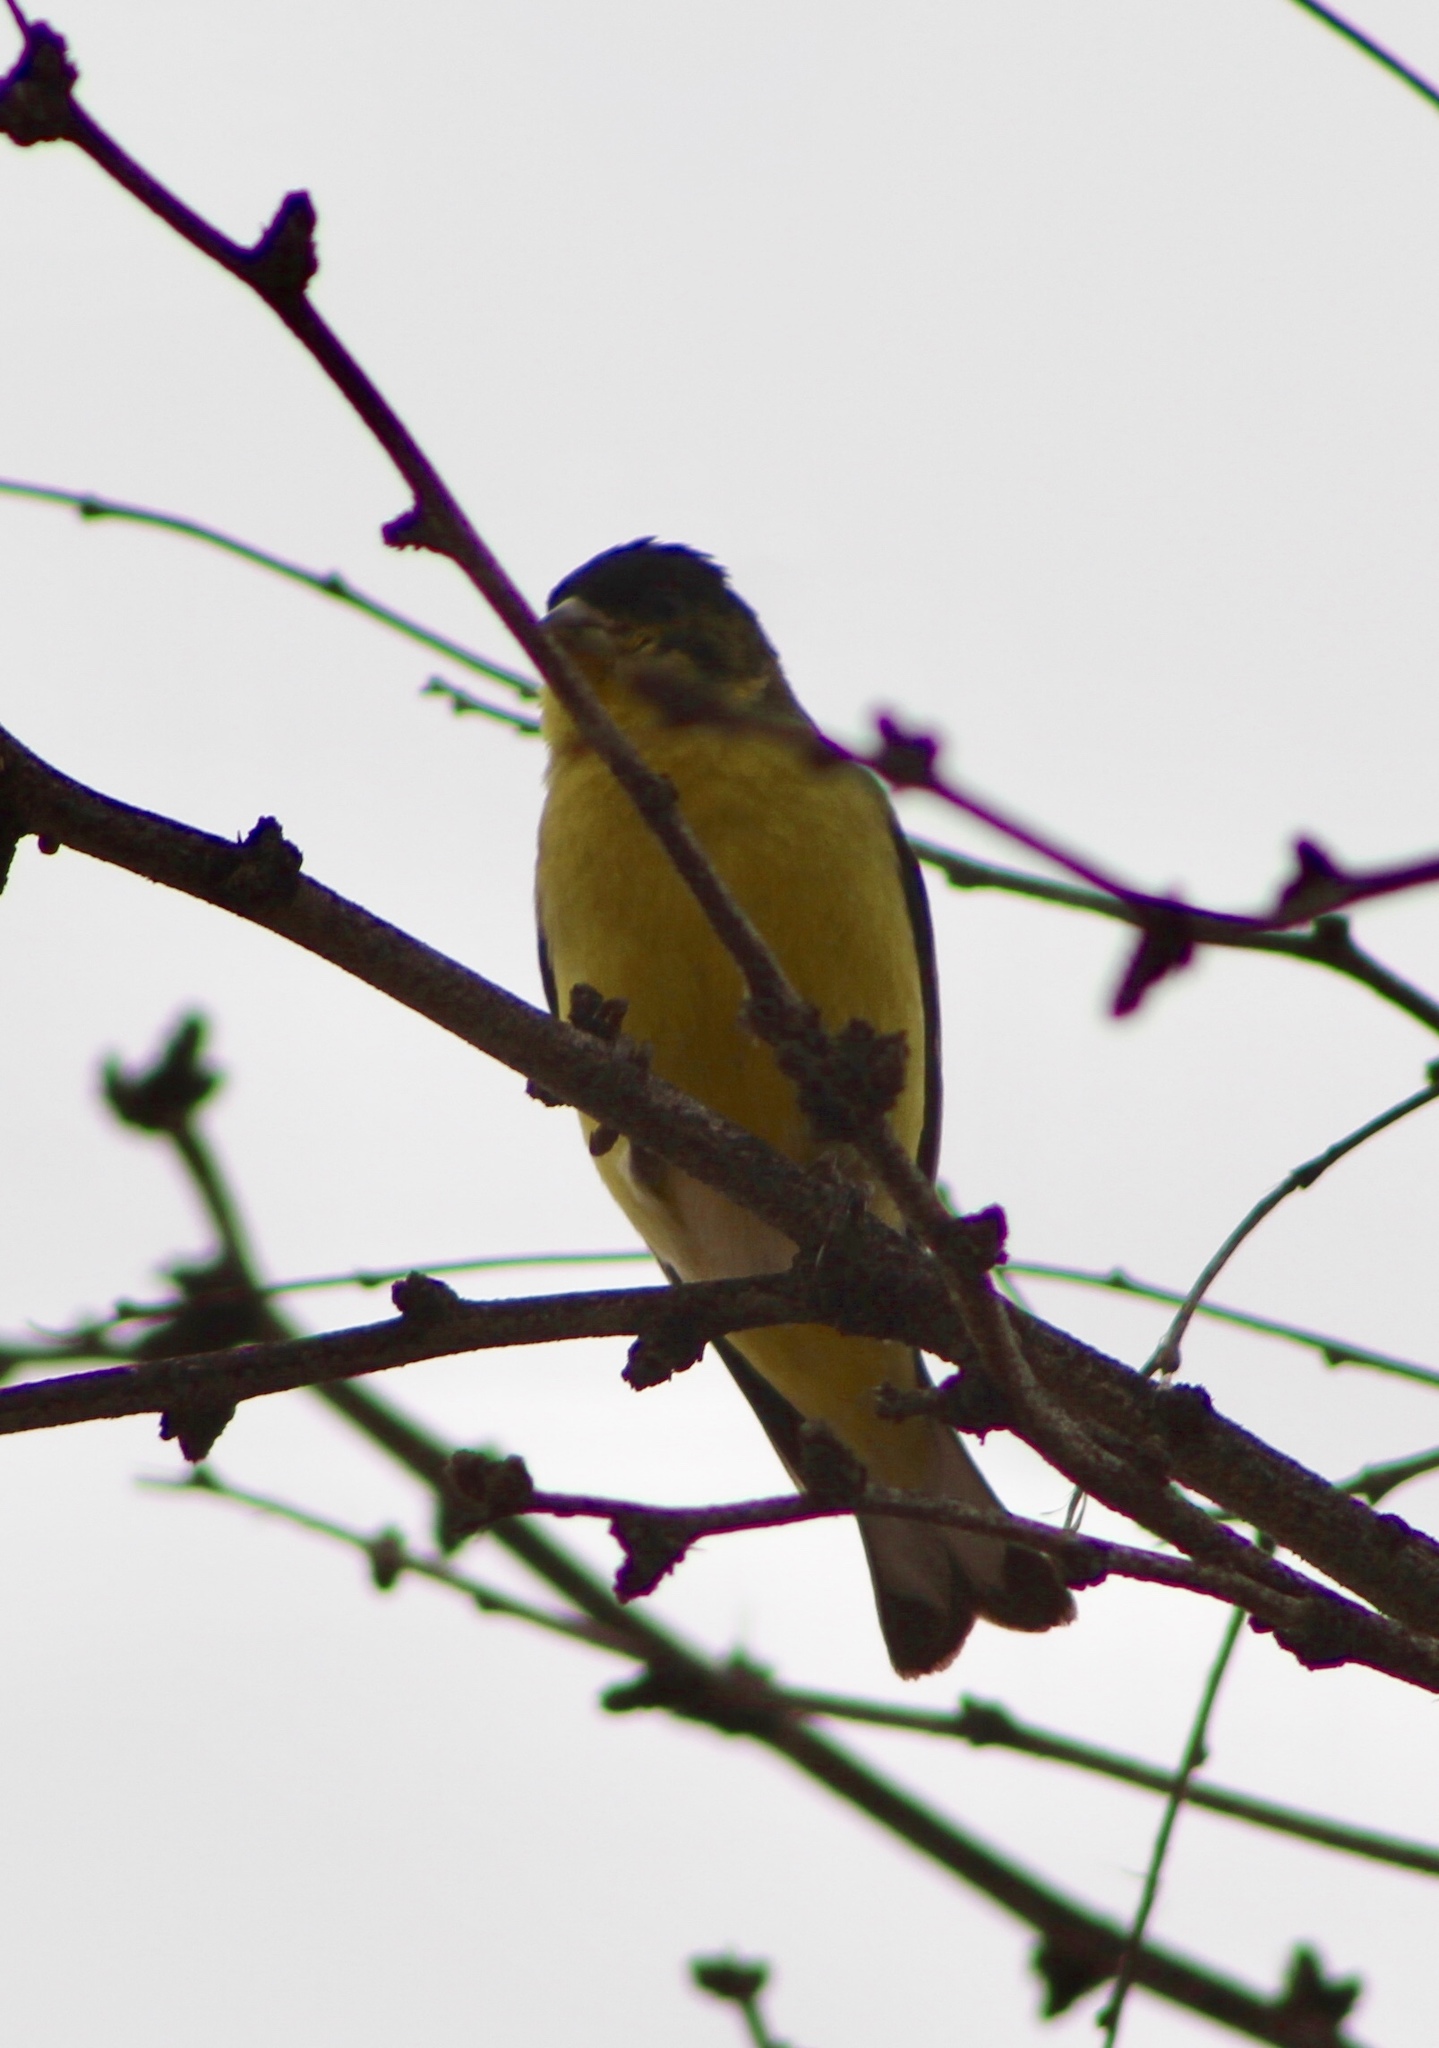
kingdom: Animalia
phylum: Chordata
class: Aves
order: Passeriformes
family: Fringillidae
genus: Spinus
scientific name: Spinus psaltria
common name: Lesser goldfinch
